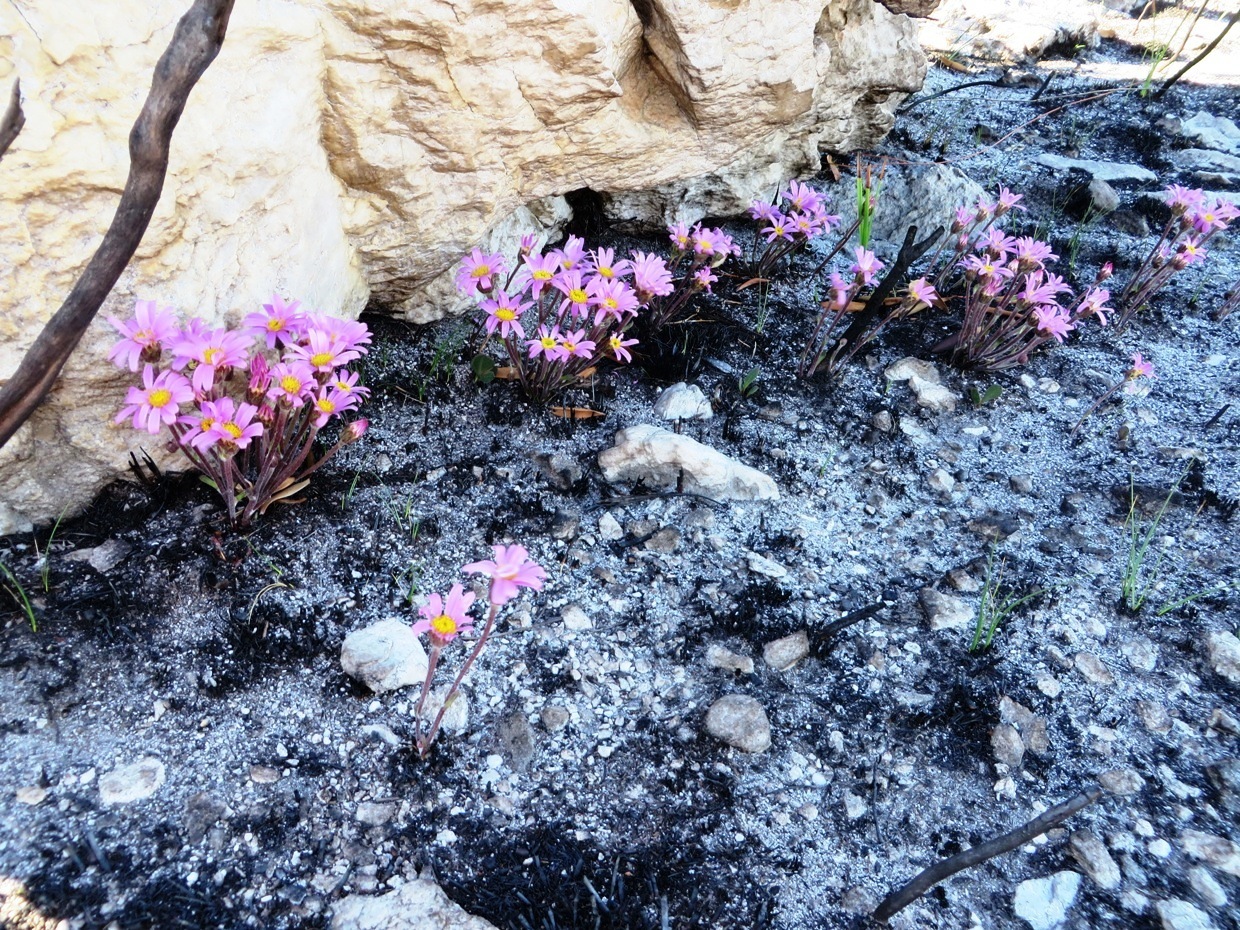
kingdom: Plantae
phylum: Tracheophyta
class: Magnoliopsida
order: Asterales
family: Asteraceae
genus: Mairia
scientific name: Mairia coriacea
